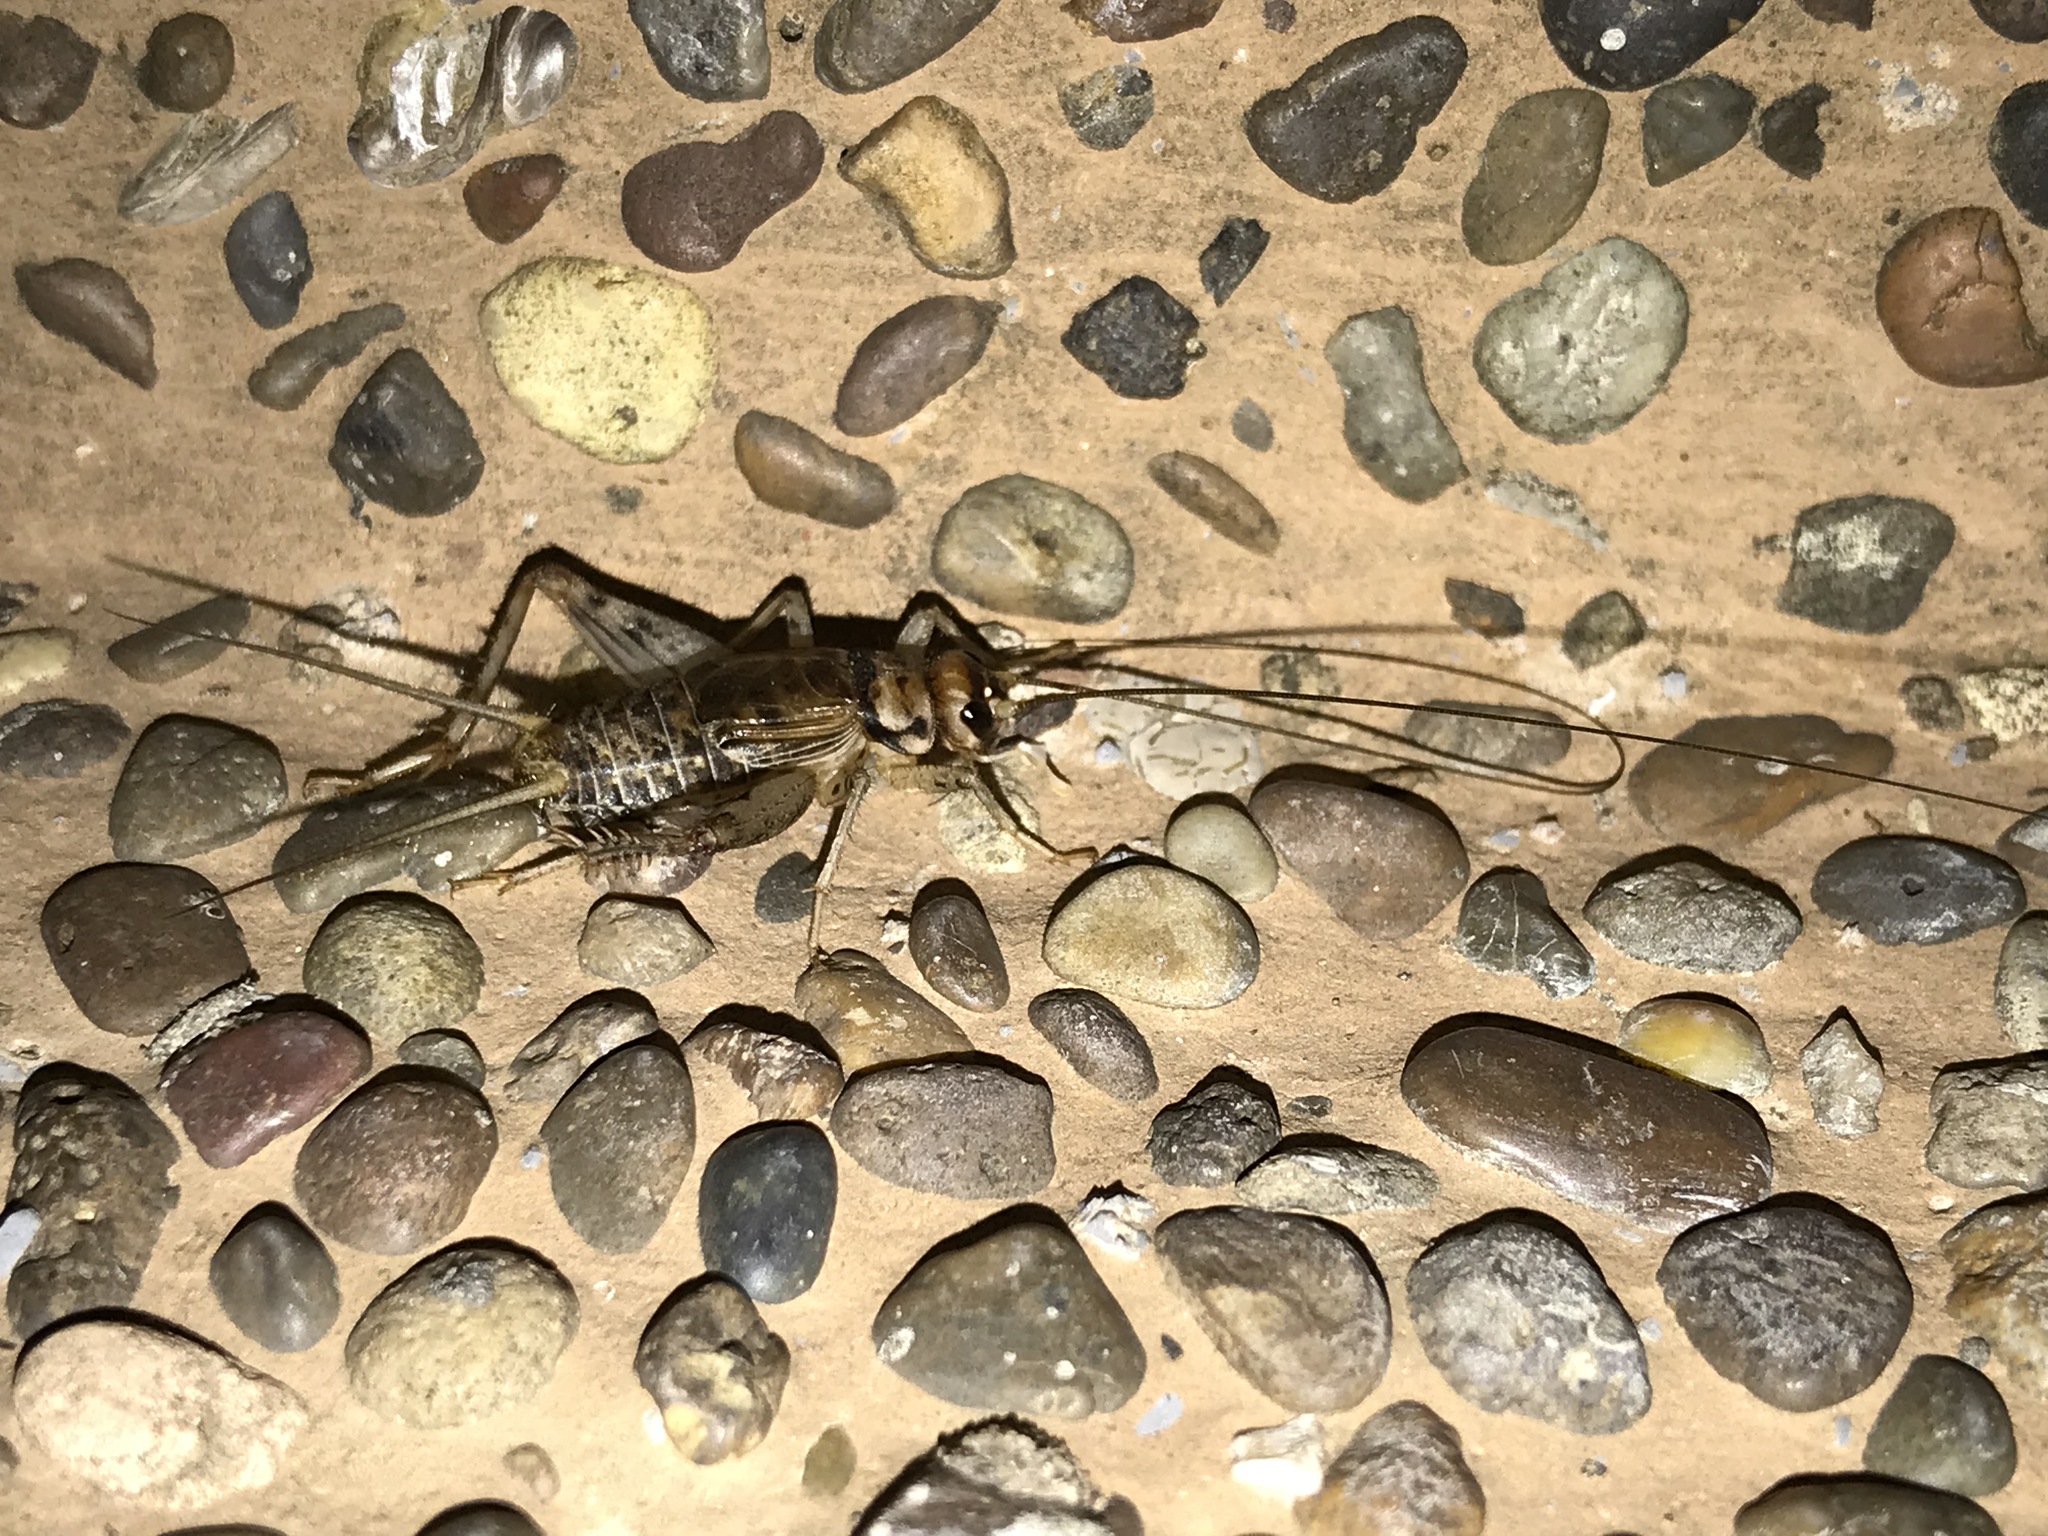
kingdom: Animalia
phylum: Arthropoda
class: Insecta
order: Orthoptera
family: Gryllidae
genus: Gryllodes
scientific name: Gryllodes sigillatus
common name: Tropical house cricket
